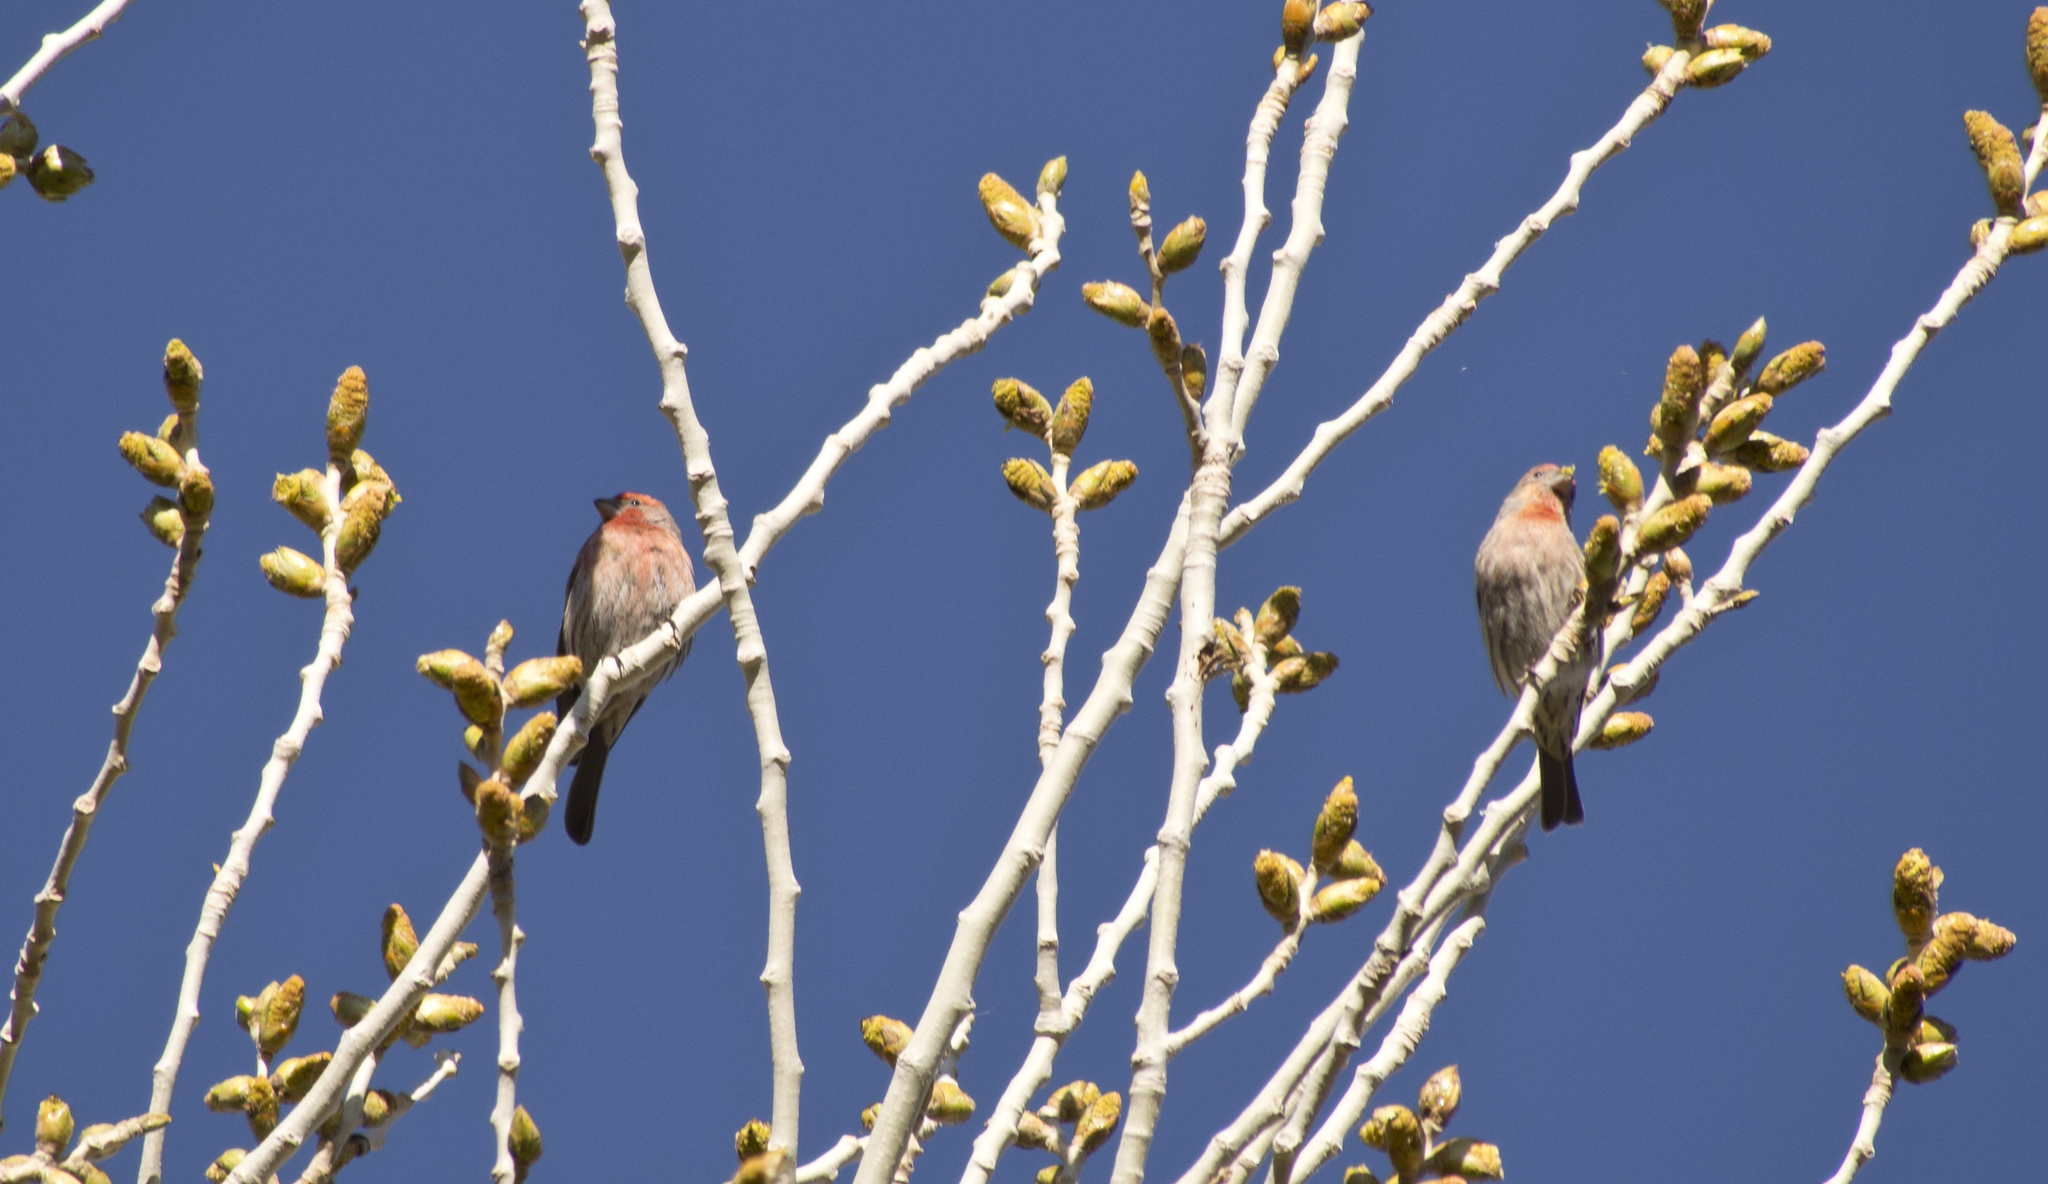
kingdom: Animalia
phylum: Chordata
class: Aves
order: Passeriformes
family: Fringillidae
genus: Haemorhous
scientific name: Haemorhous mexicanus
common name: House finch
